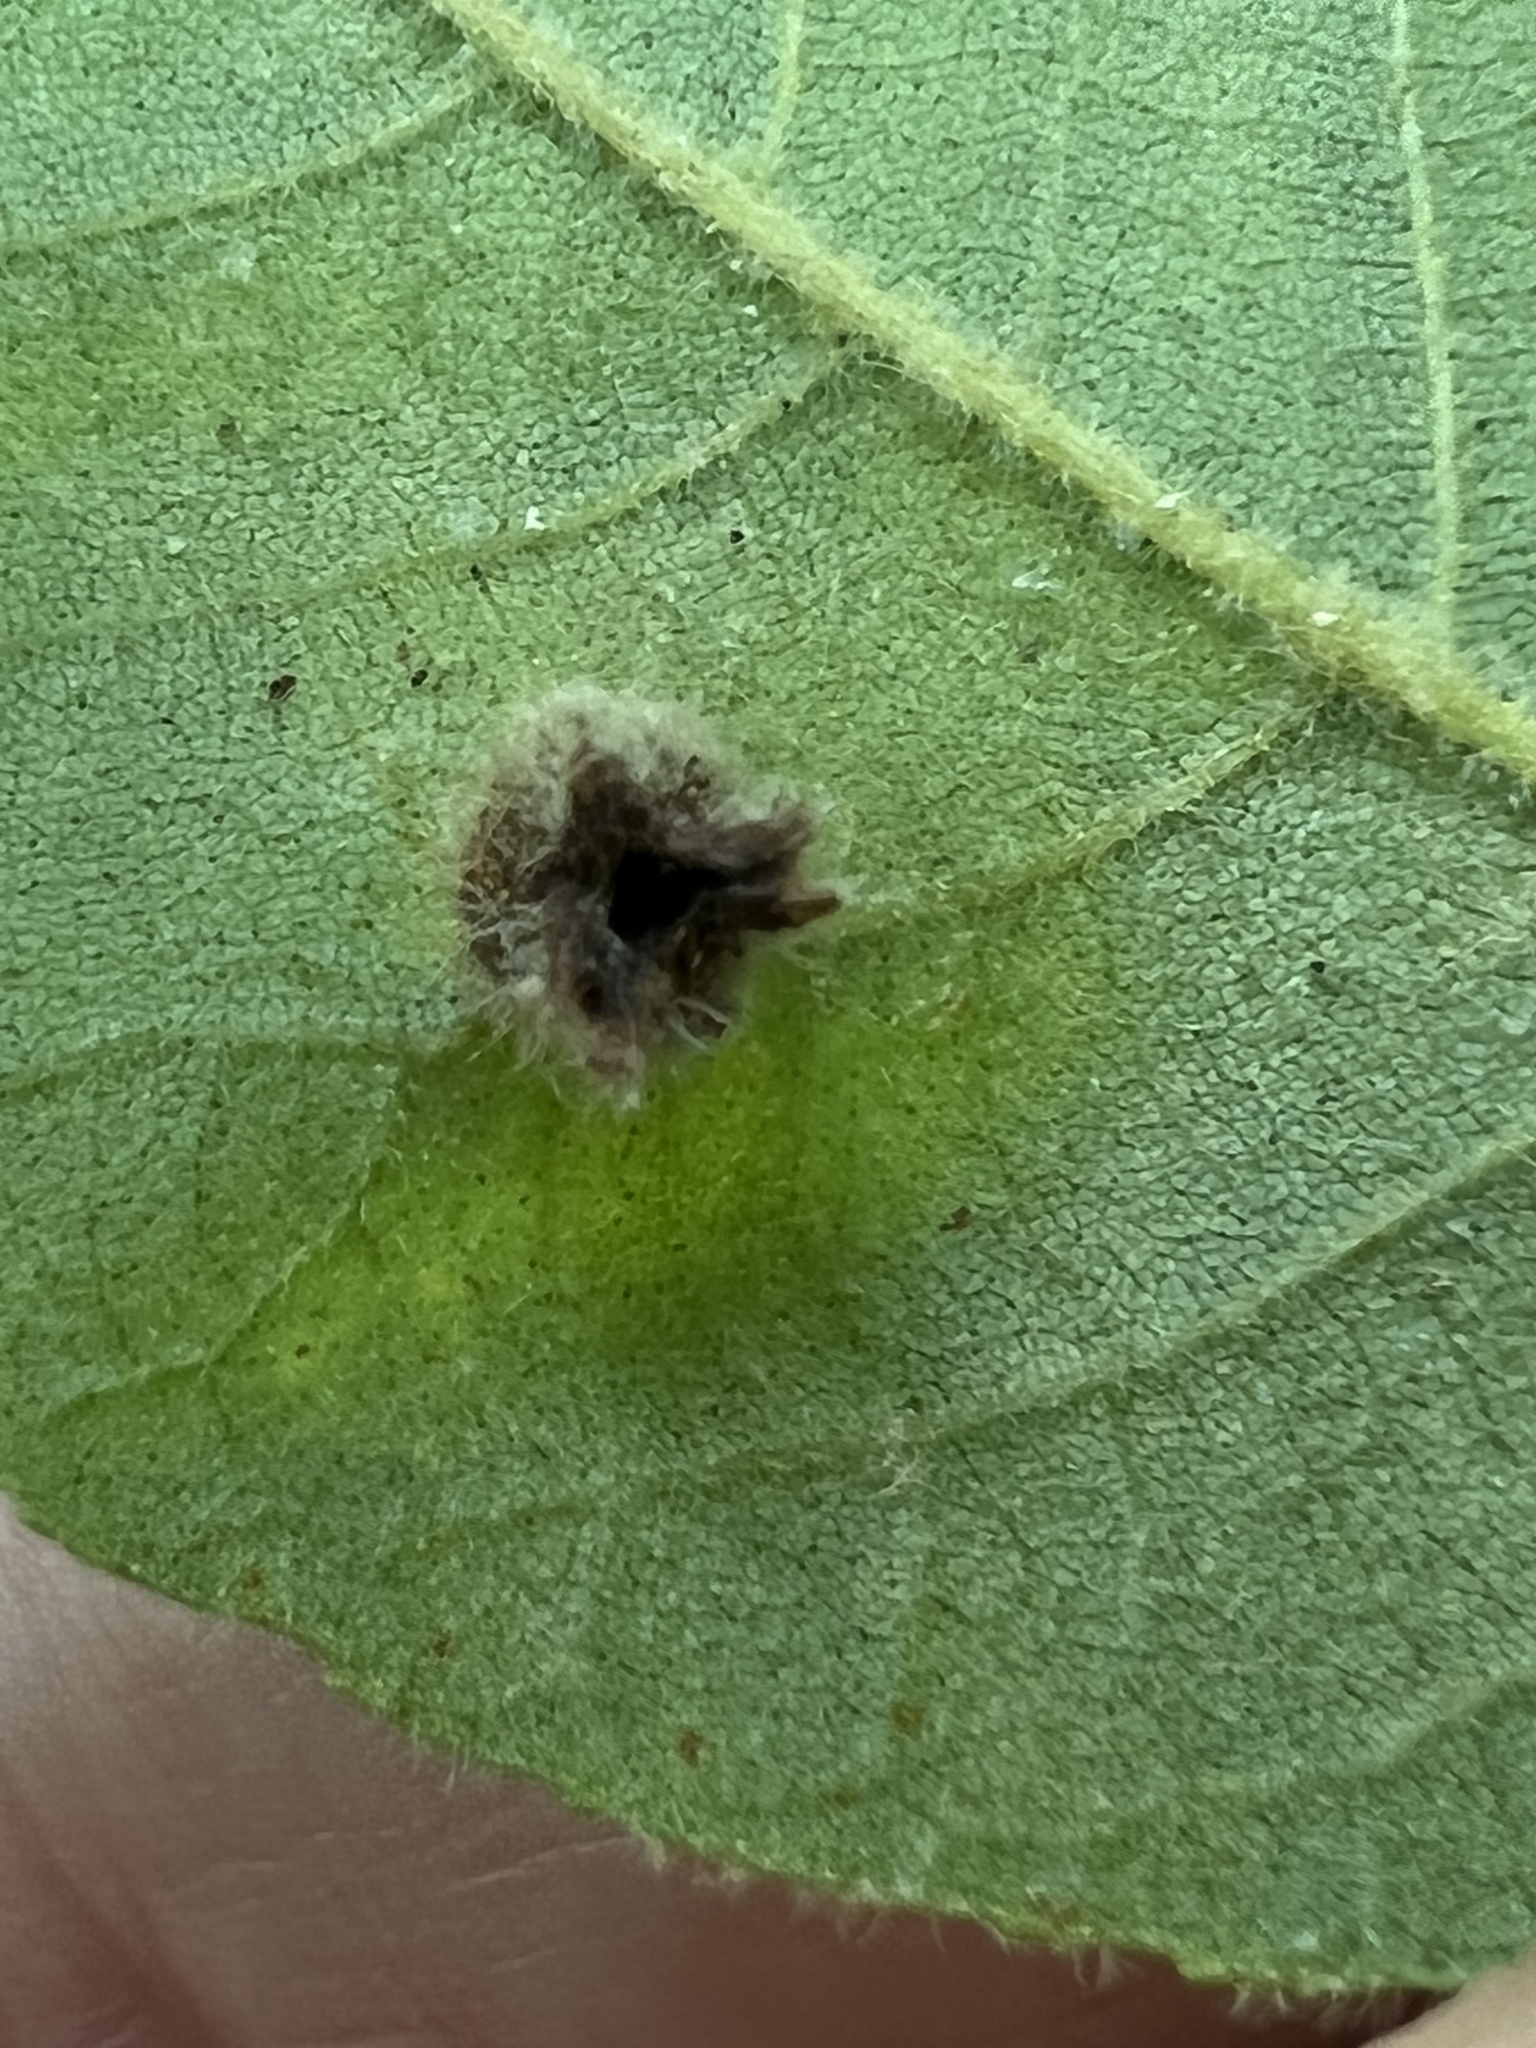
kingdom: Animalia
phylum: Arthropoda
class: Insecta
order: Hemiptera
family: Phylloxeridae
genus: Phylloxera
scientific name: Phylloxera caryaegummosa
